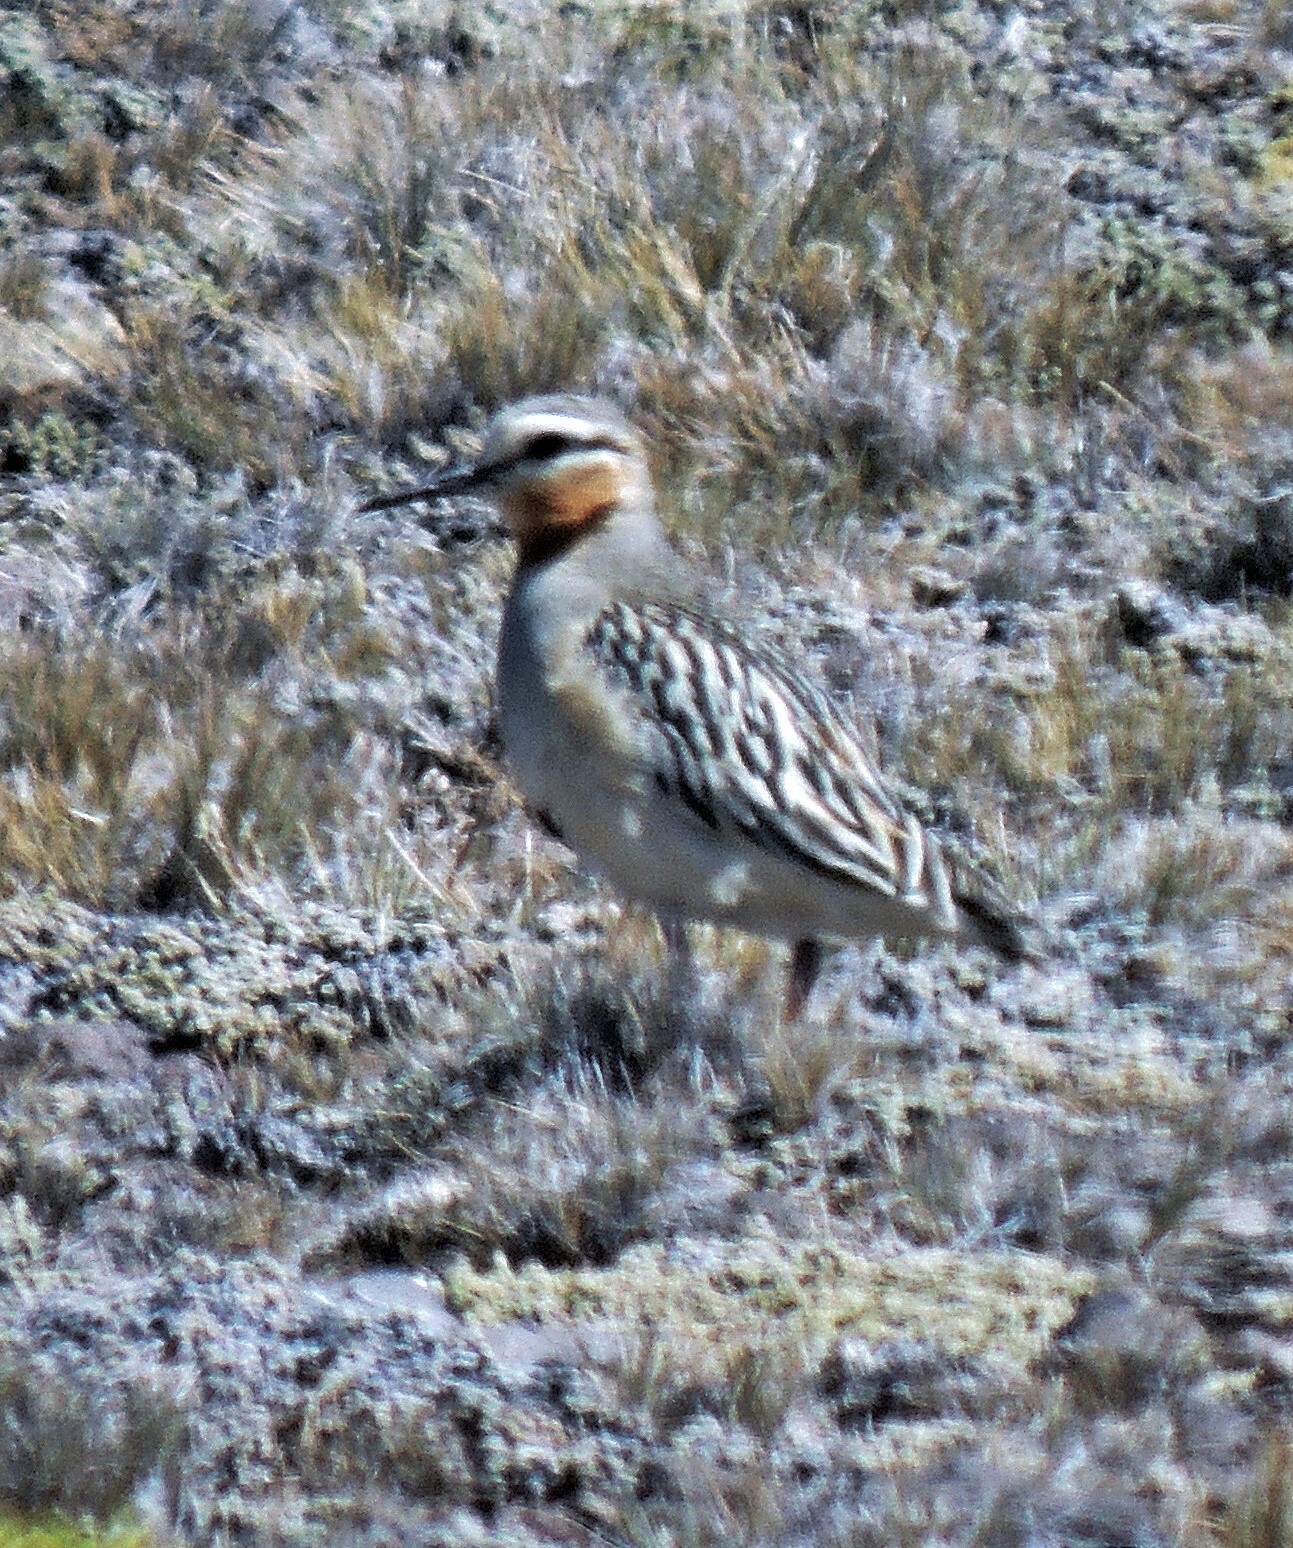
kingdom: Animalia
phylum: Chordata
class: Aves
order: Charadriiformes
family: Charadriidae
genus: Oreopholus
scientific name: Oreopholus ruficollis
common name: Tawny-throated dotterel
